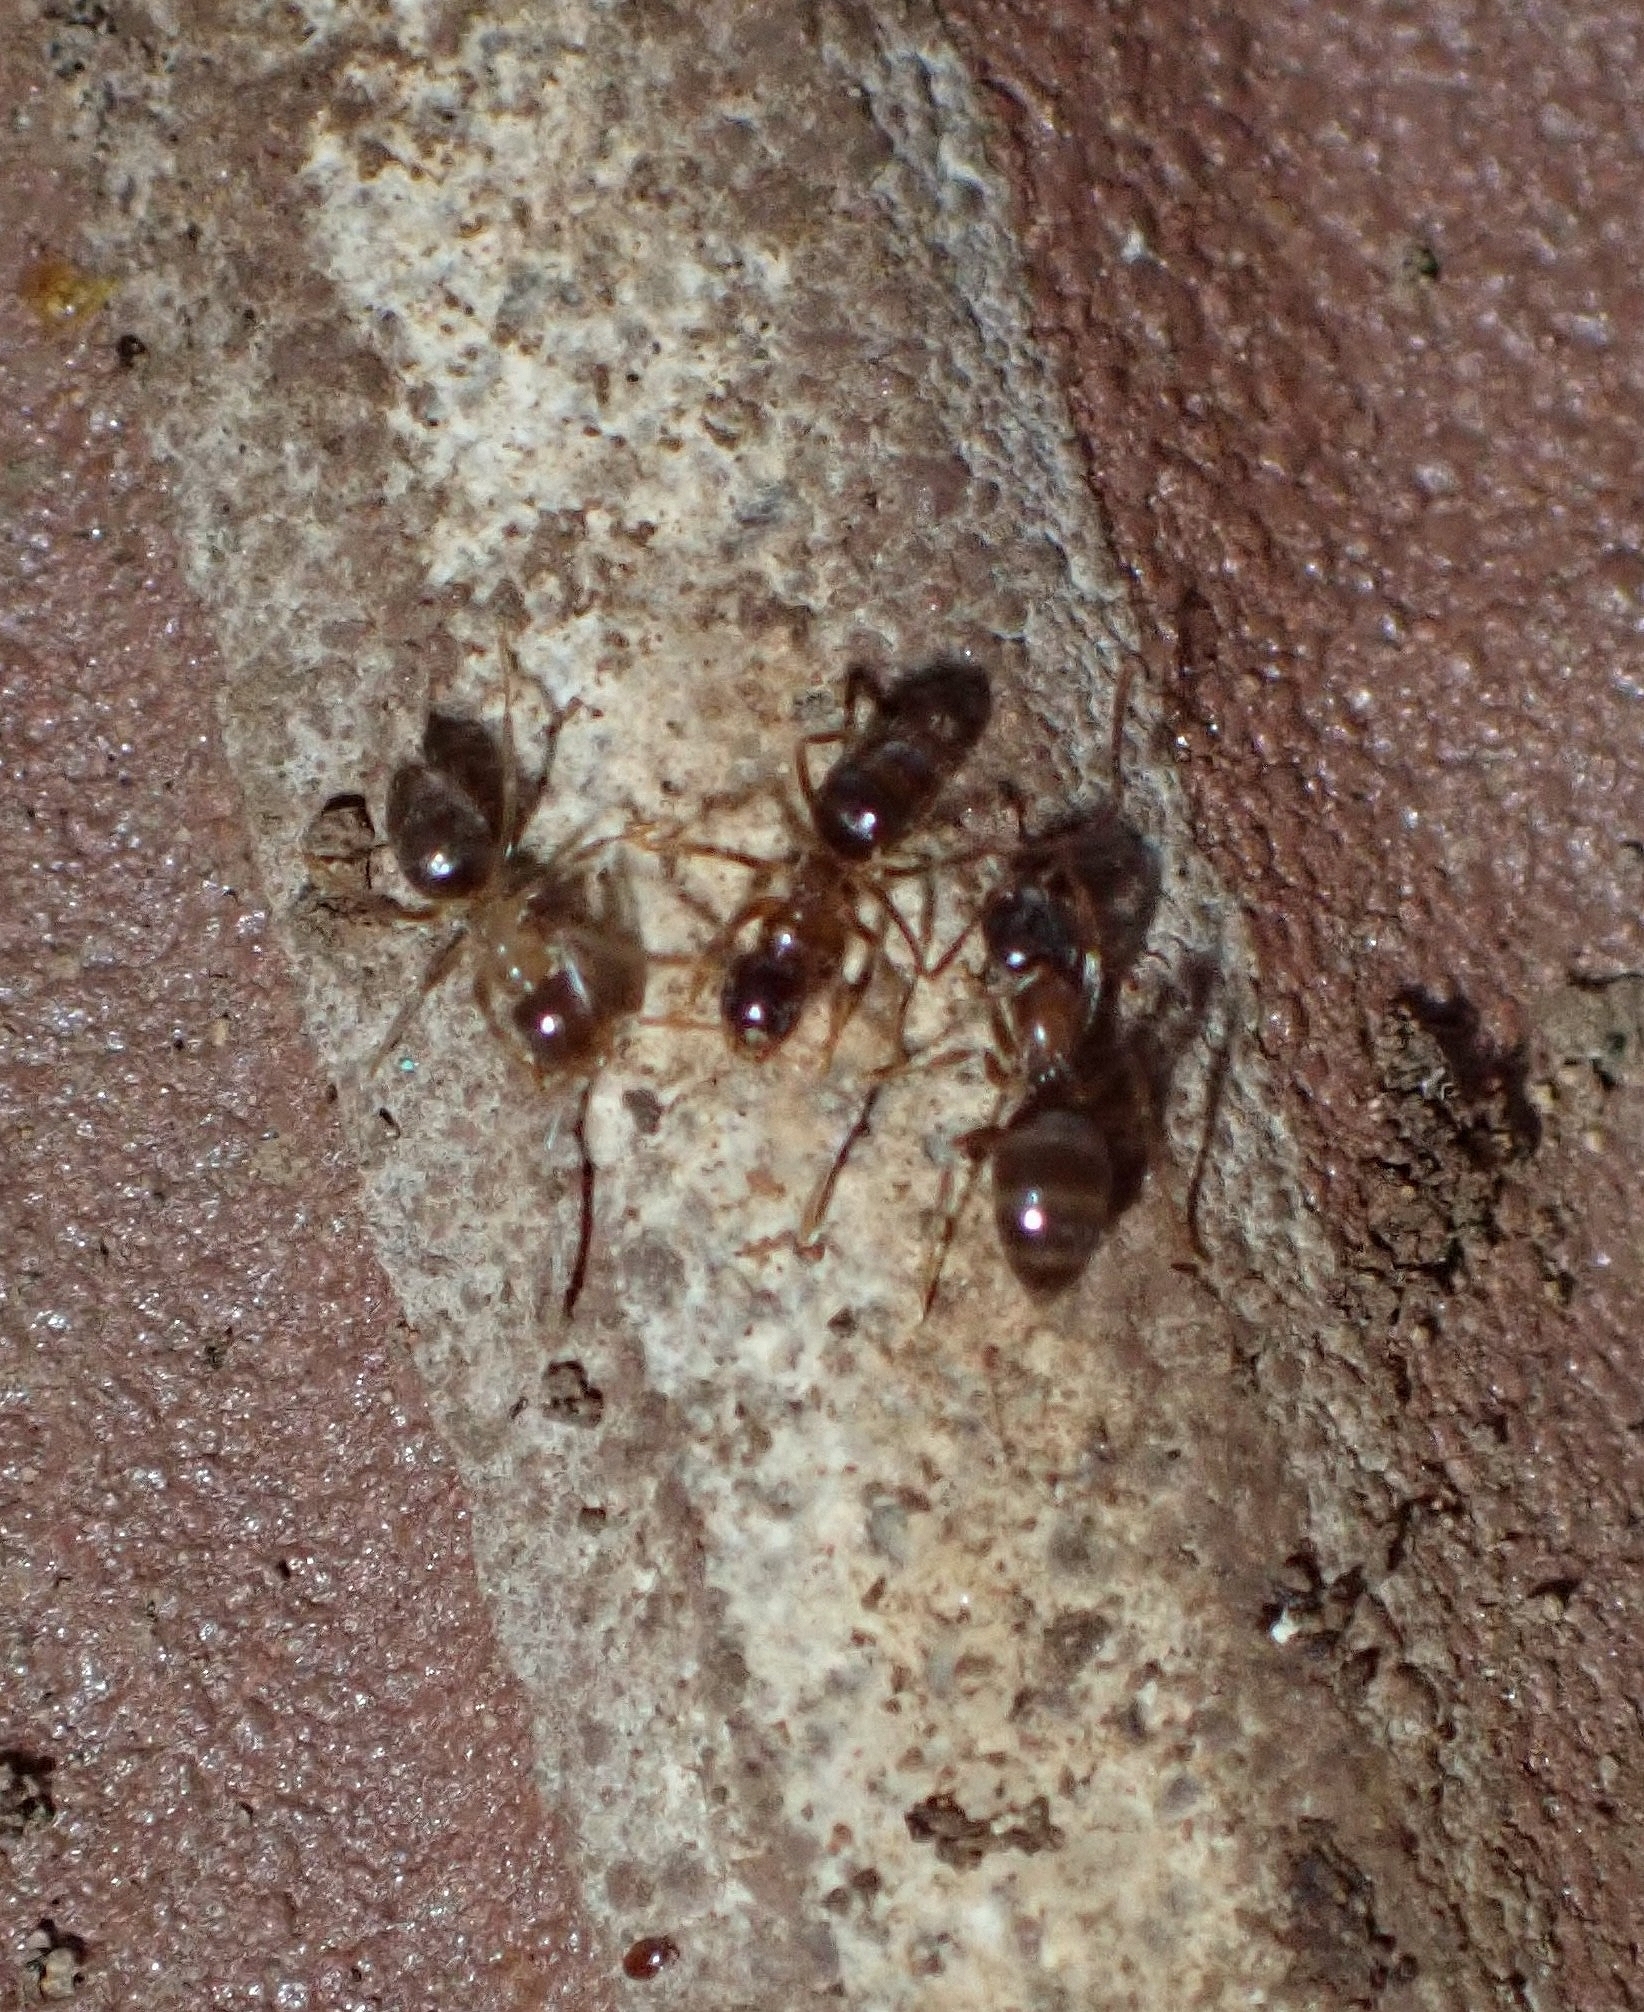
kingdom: Animalia
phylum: Arthropoda
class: Insecta
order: Hymenoptera
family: Formicidae
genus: Paratrechina
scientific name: Paratrechina jaegerskioeldi
